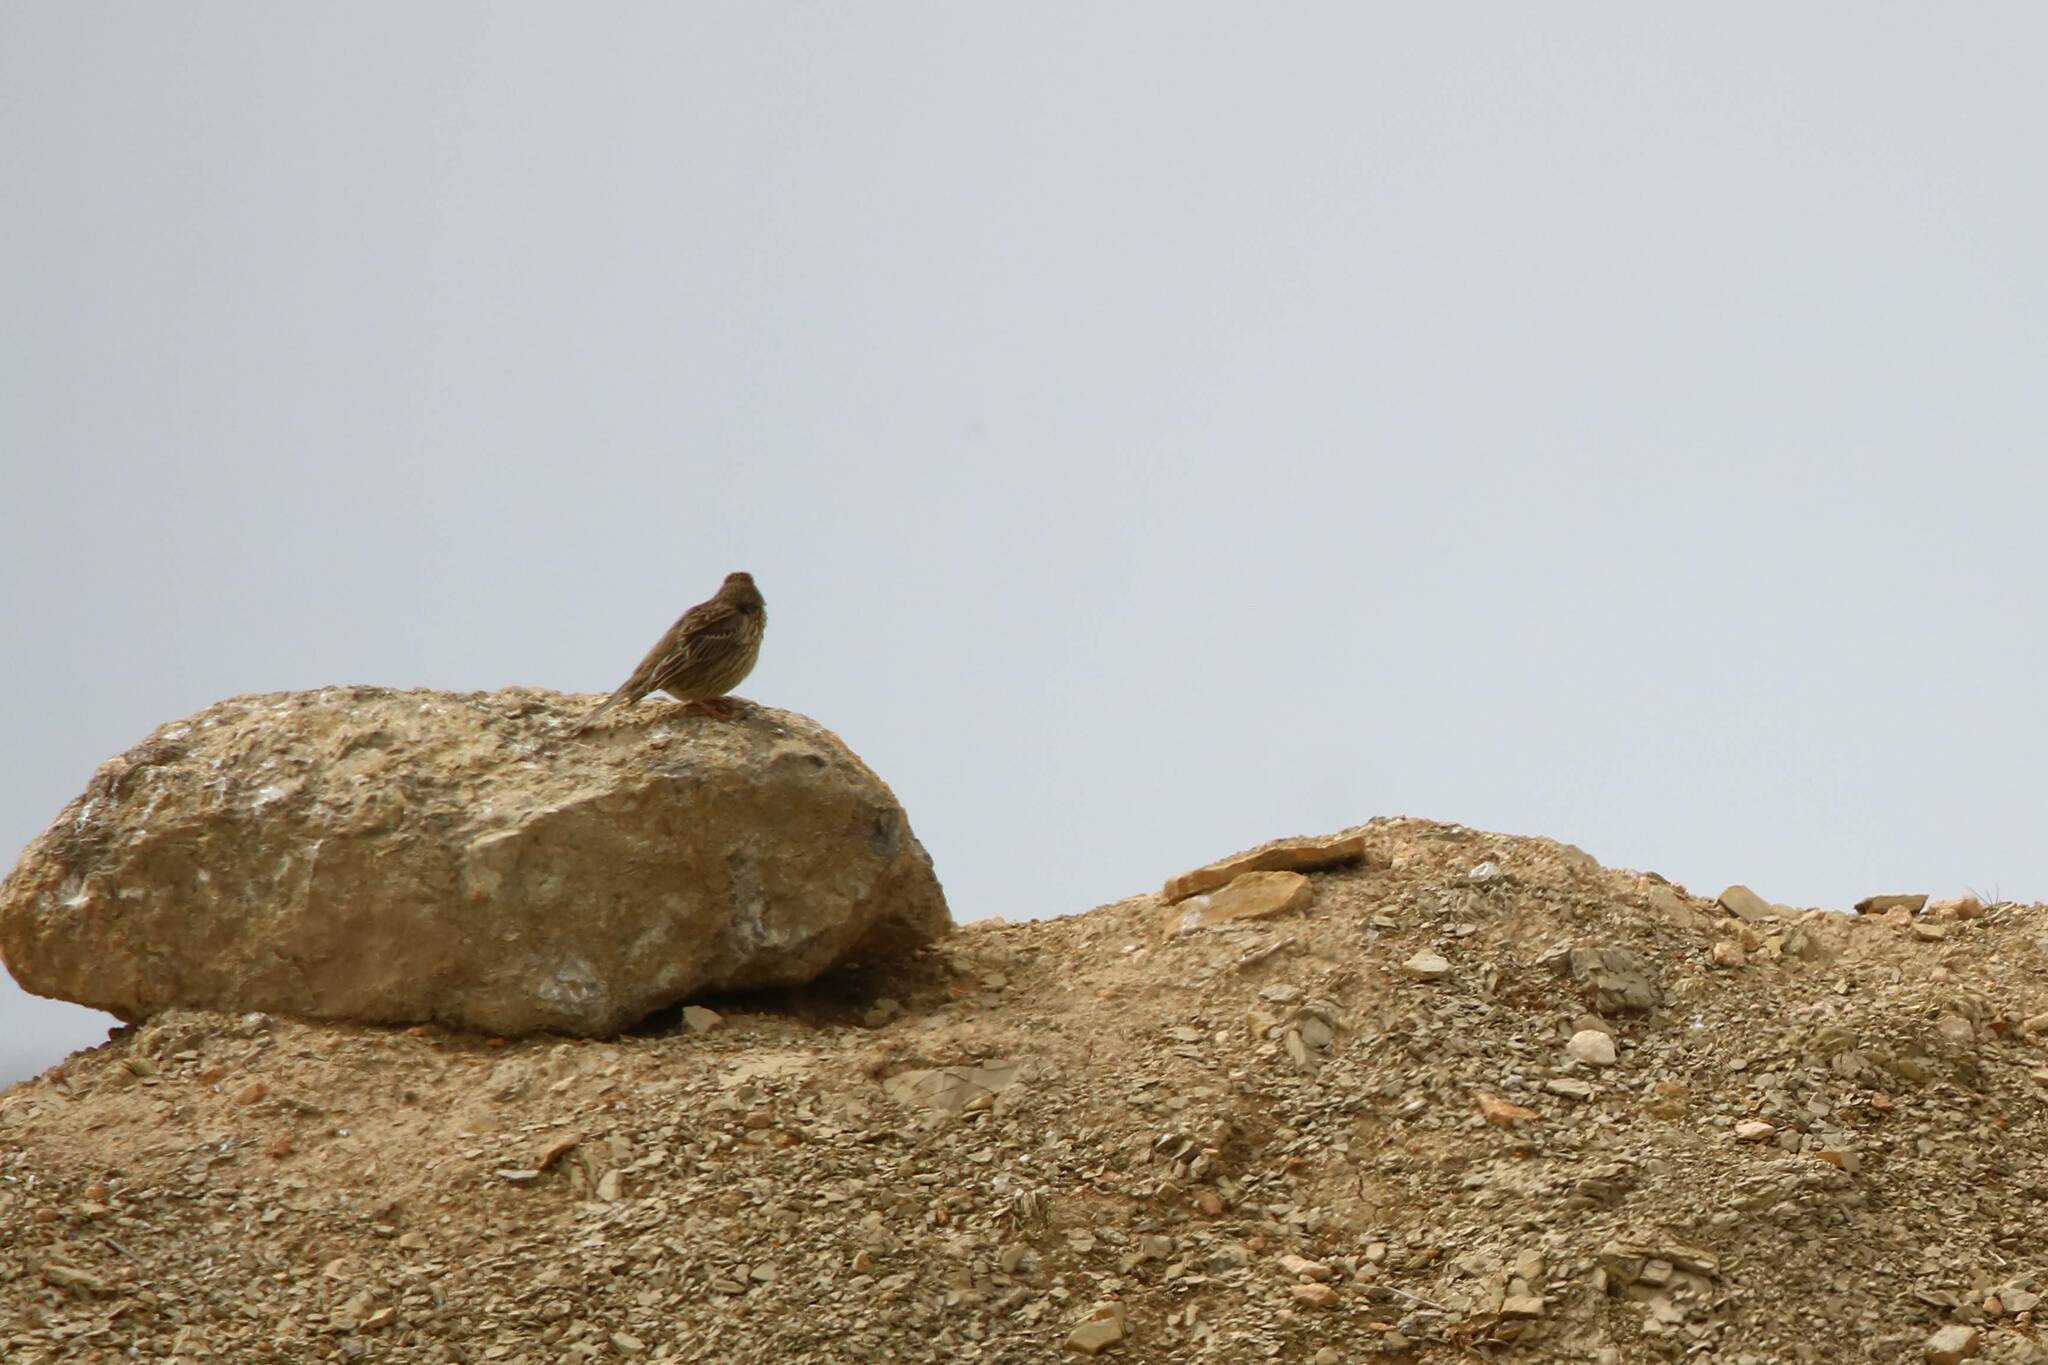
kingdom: Animalia
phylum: Chordata
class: Aves
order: Passeriformes
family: Emberizidae
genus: Emberiza
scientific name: Emberiza calandra
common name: Corn bunting
